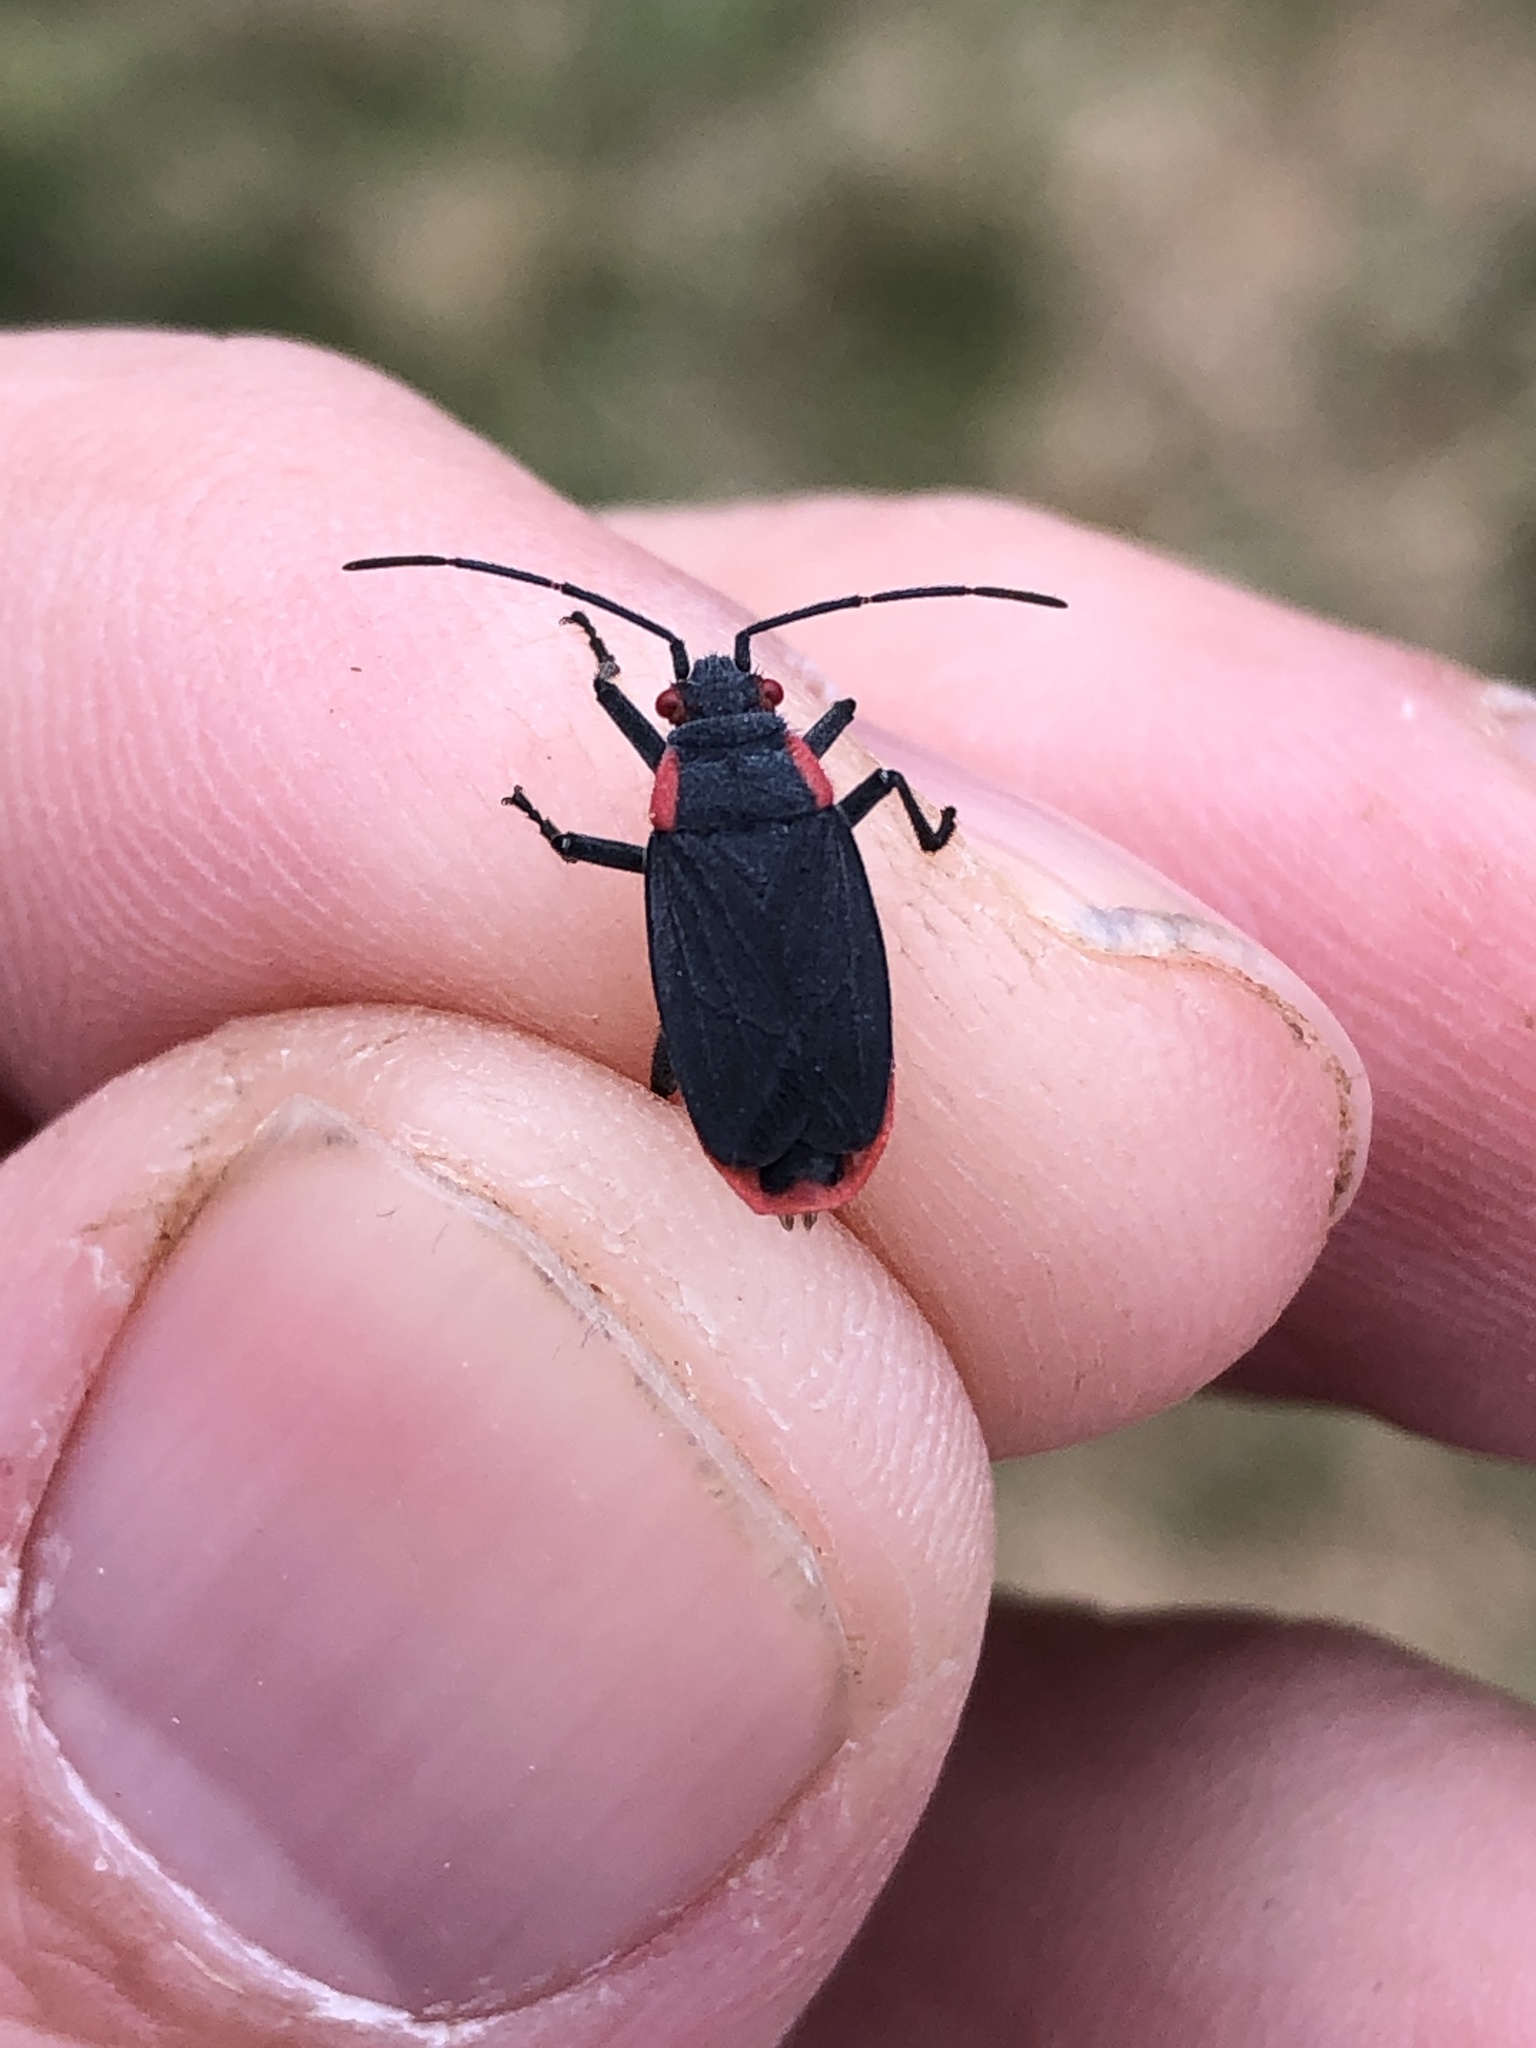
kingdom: Animalia
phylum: Arthropoda
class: Insecta
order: Hemiptera
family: Rhopalidae
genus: Jadera
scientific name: Jadera haematoloma
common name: Red-shouldered bug
